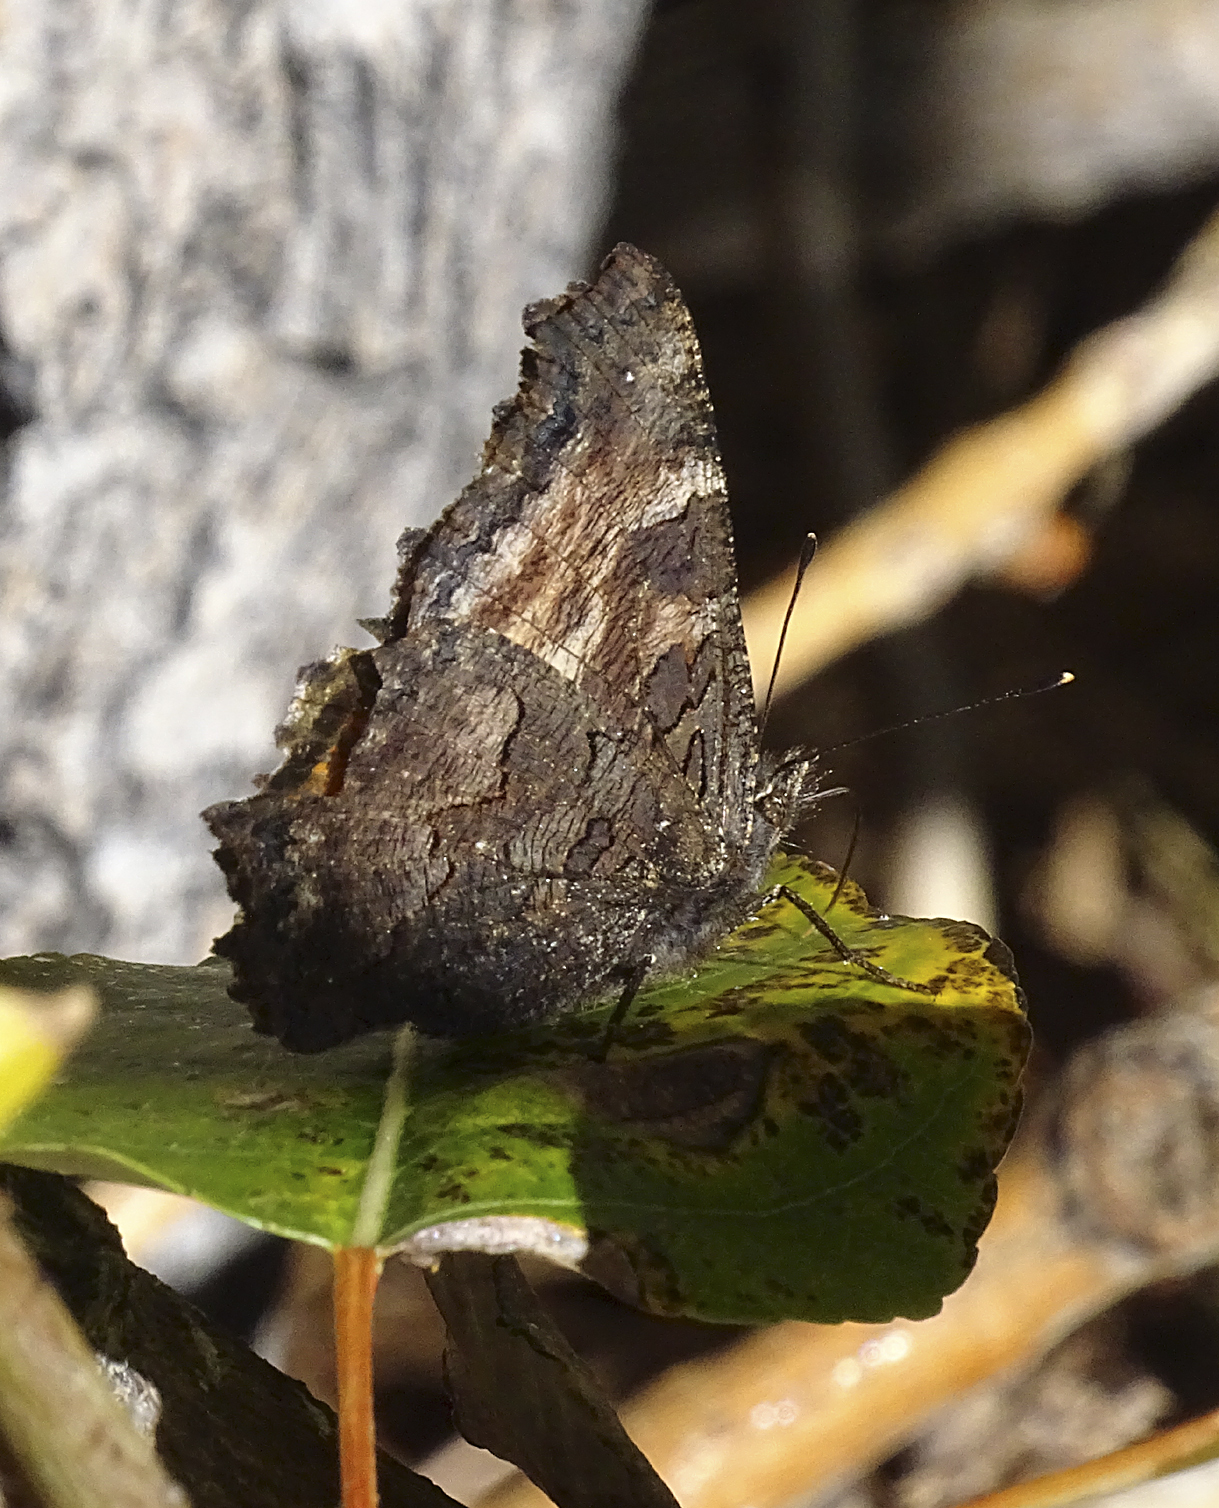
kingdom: Animalia
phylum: Arthropoda
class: Insecta
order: Lepidoptera
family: Nymphalidae
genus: Nymphalis
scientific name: Nymphalis californica
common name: California tortoiseshell
